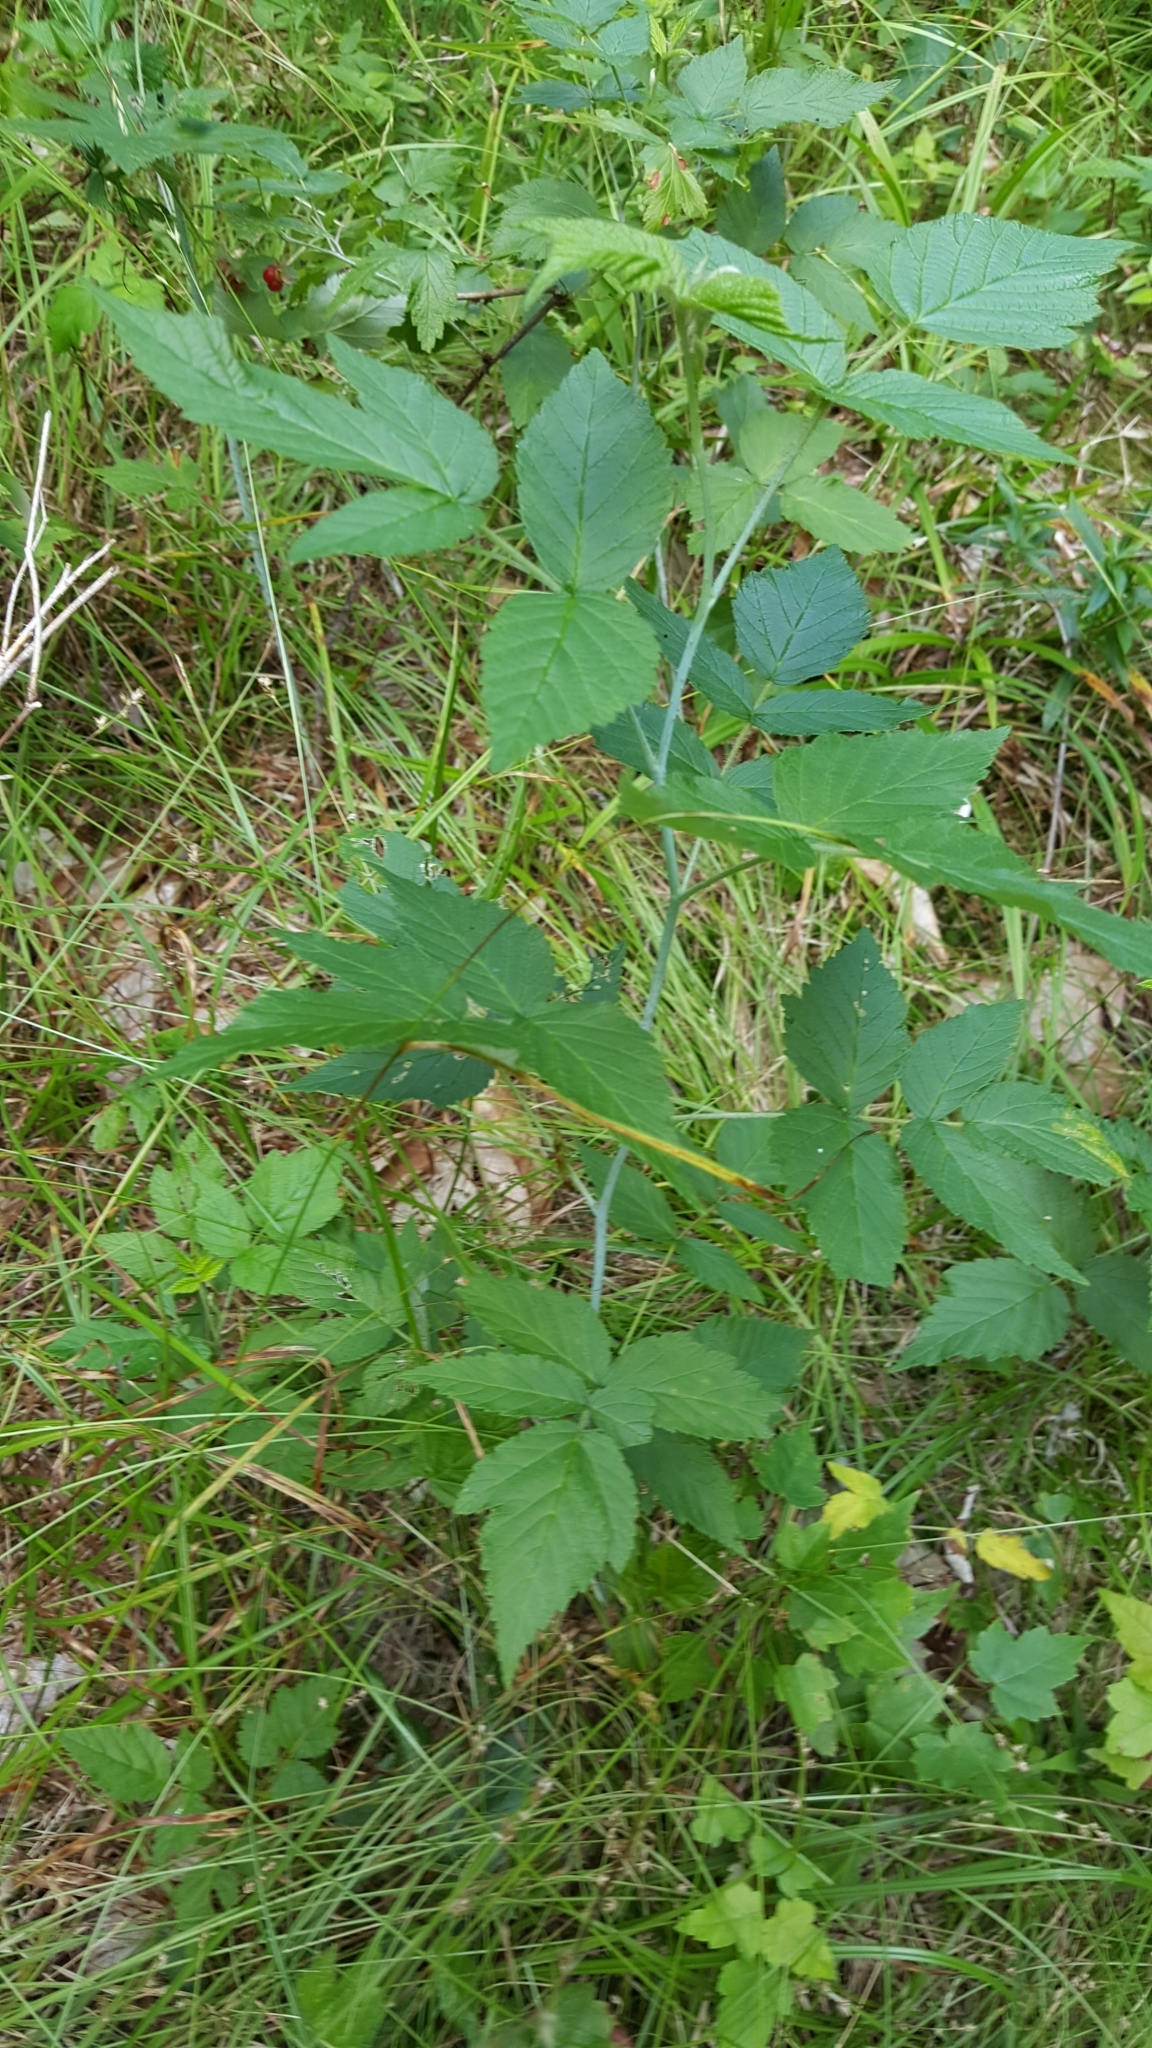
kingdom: Plantae
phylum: Tracheophyta
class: Magnoliopsida
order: Rosales
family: Rosaceae
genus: Rubus
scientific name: Rubus occidentalis
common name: Black raspberry
